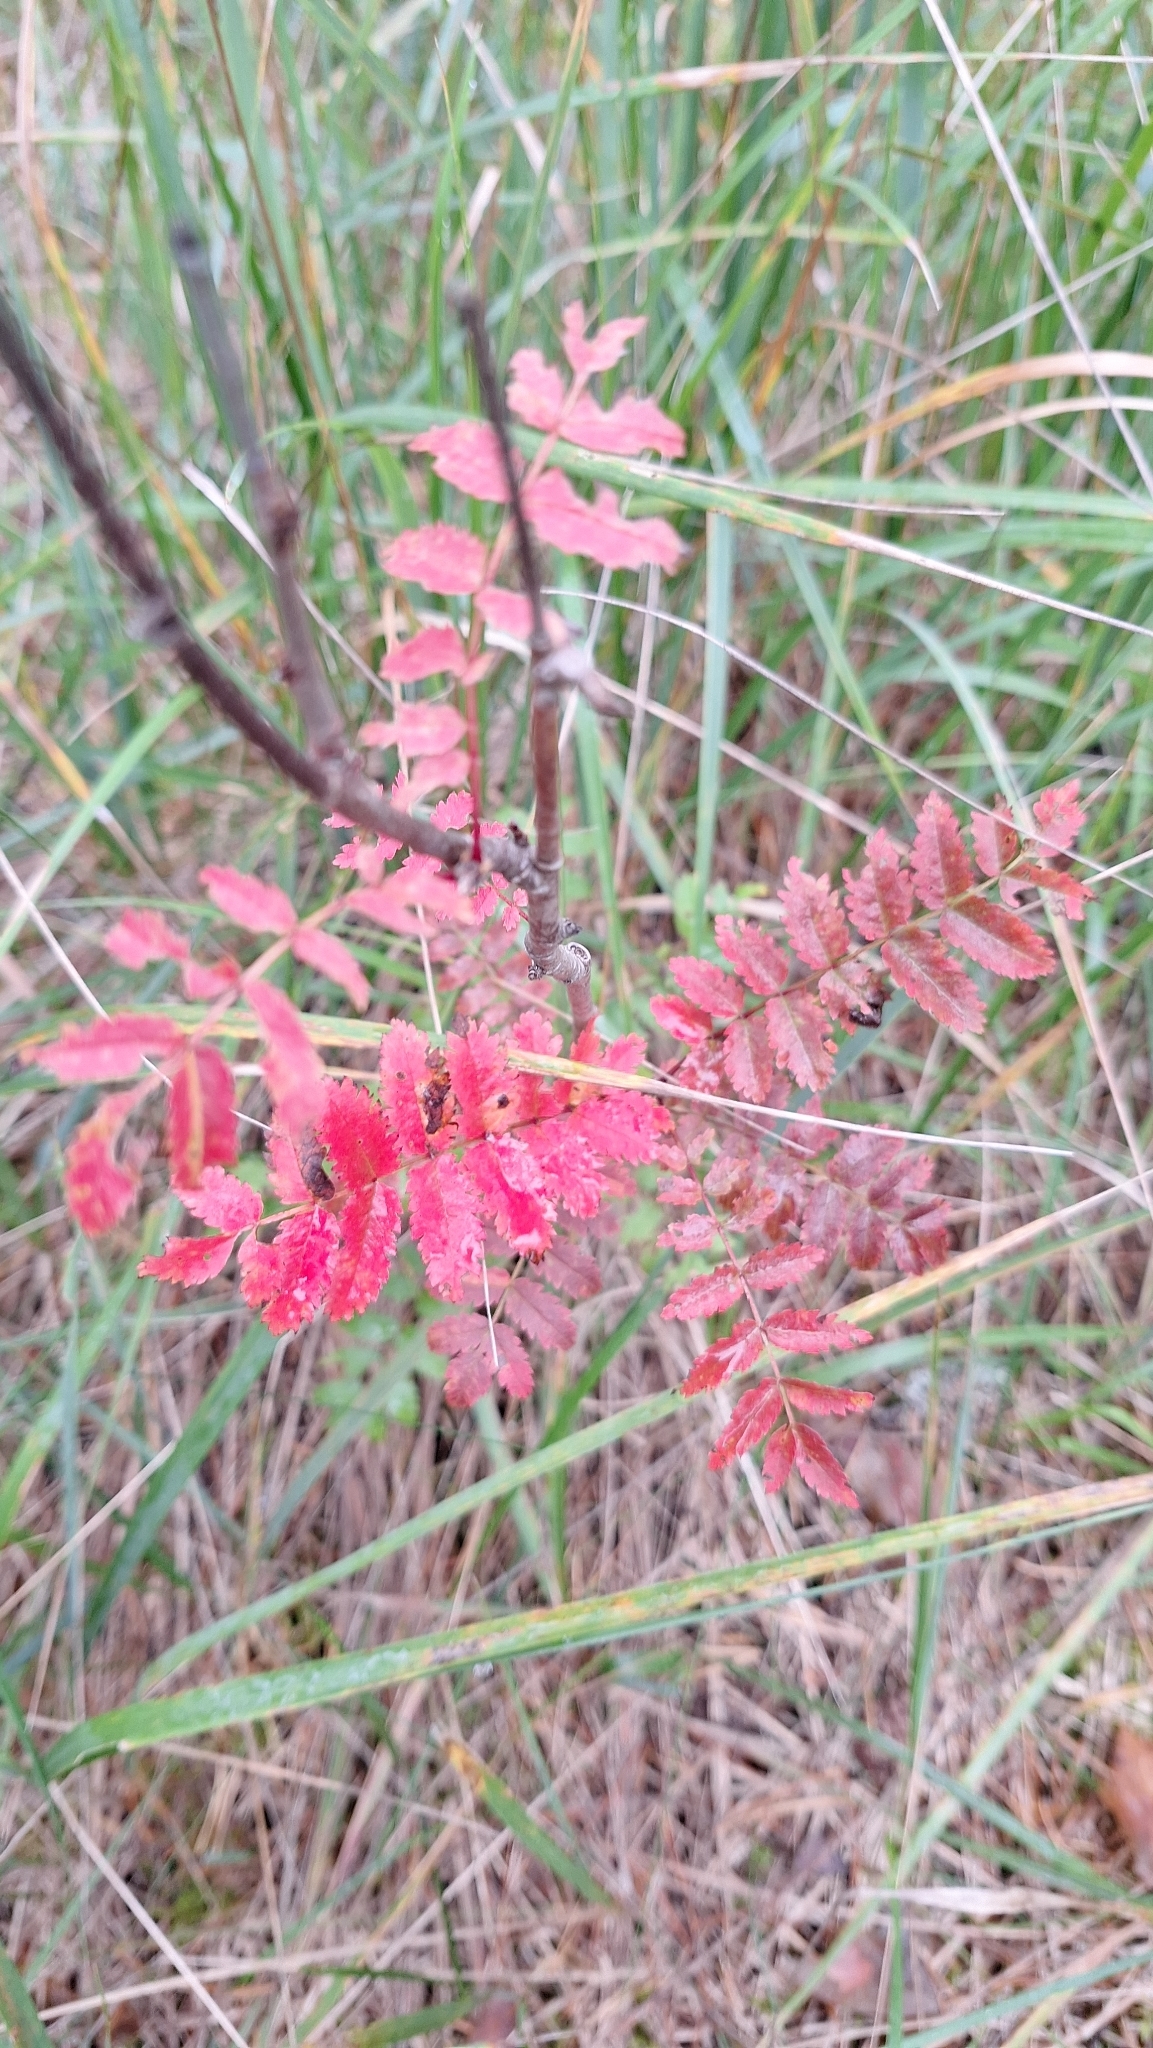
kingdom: Plantae
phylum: Tracheophyta
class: Magnoliopsida
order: Rosales
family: Rosaceae
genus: Sorbus
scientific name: Sorbus aucuparia
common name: Rowan
